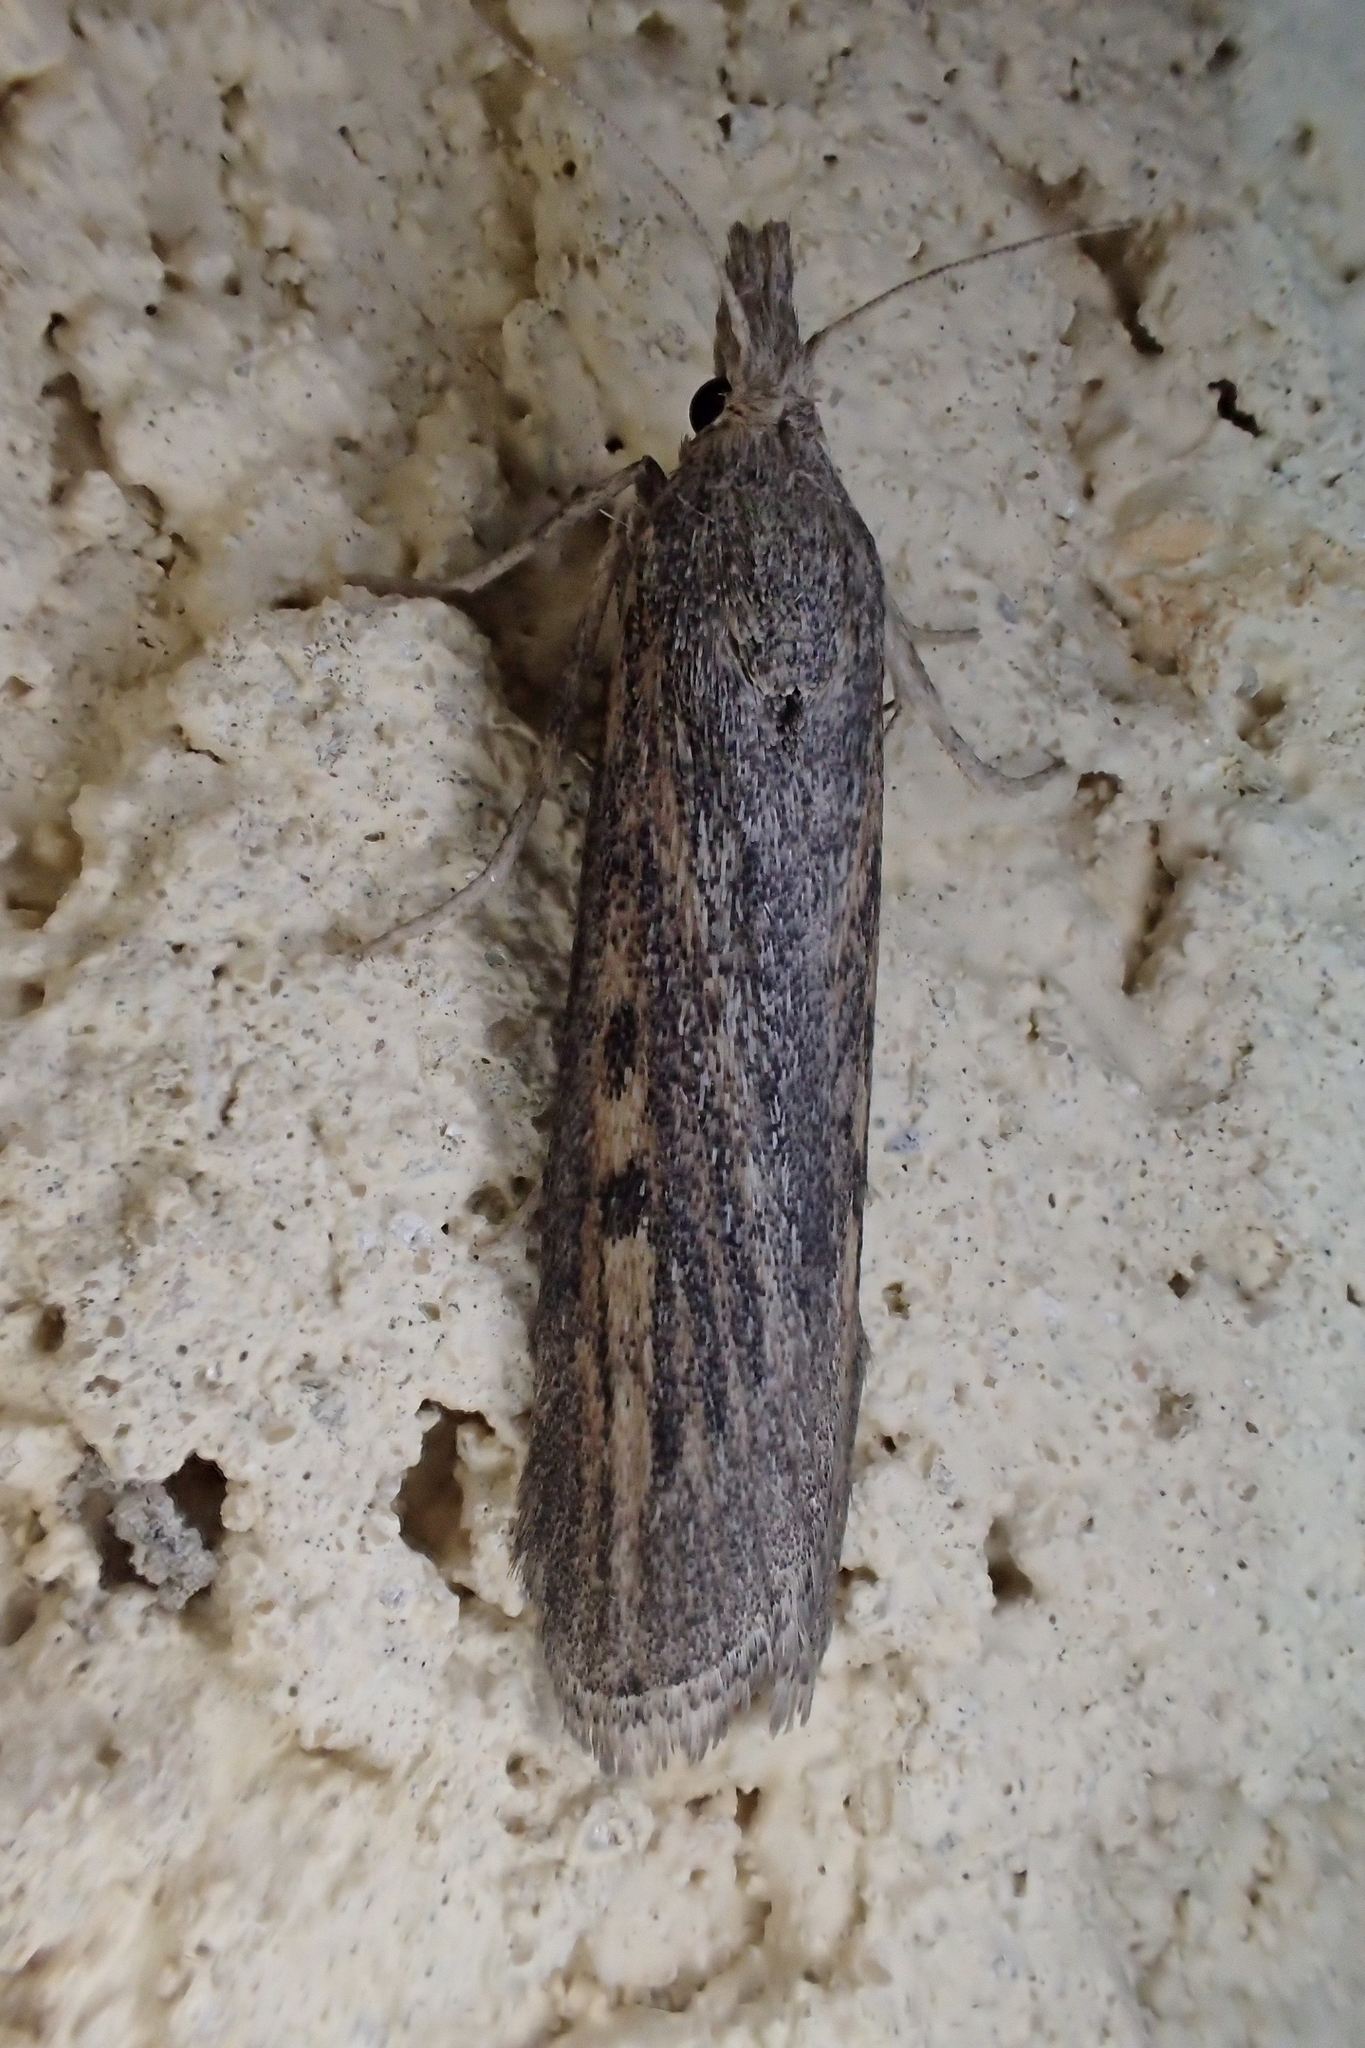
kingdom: Animalia
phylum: Arthropoda
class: Insecta
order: Lepidoptera
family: Pyralidae
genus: Aphomia
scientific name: Aphomia zelleri
